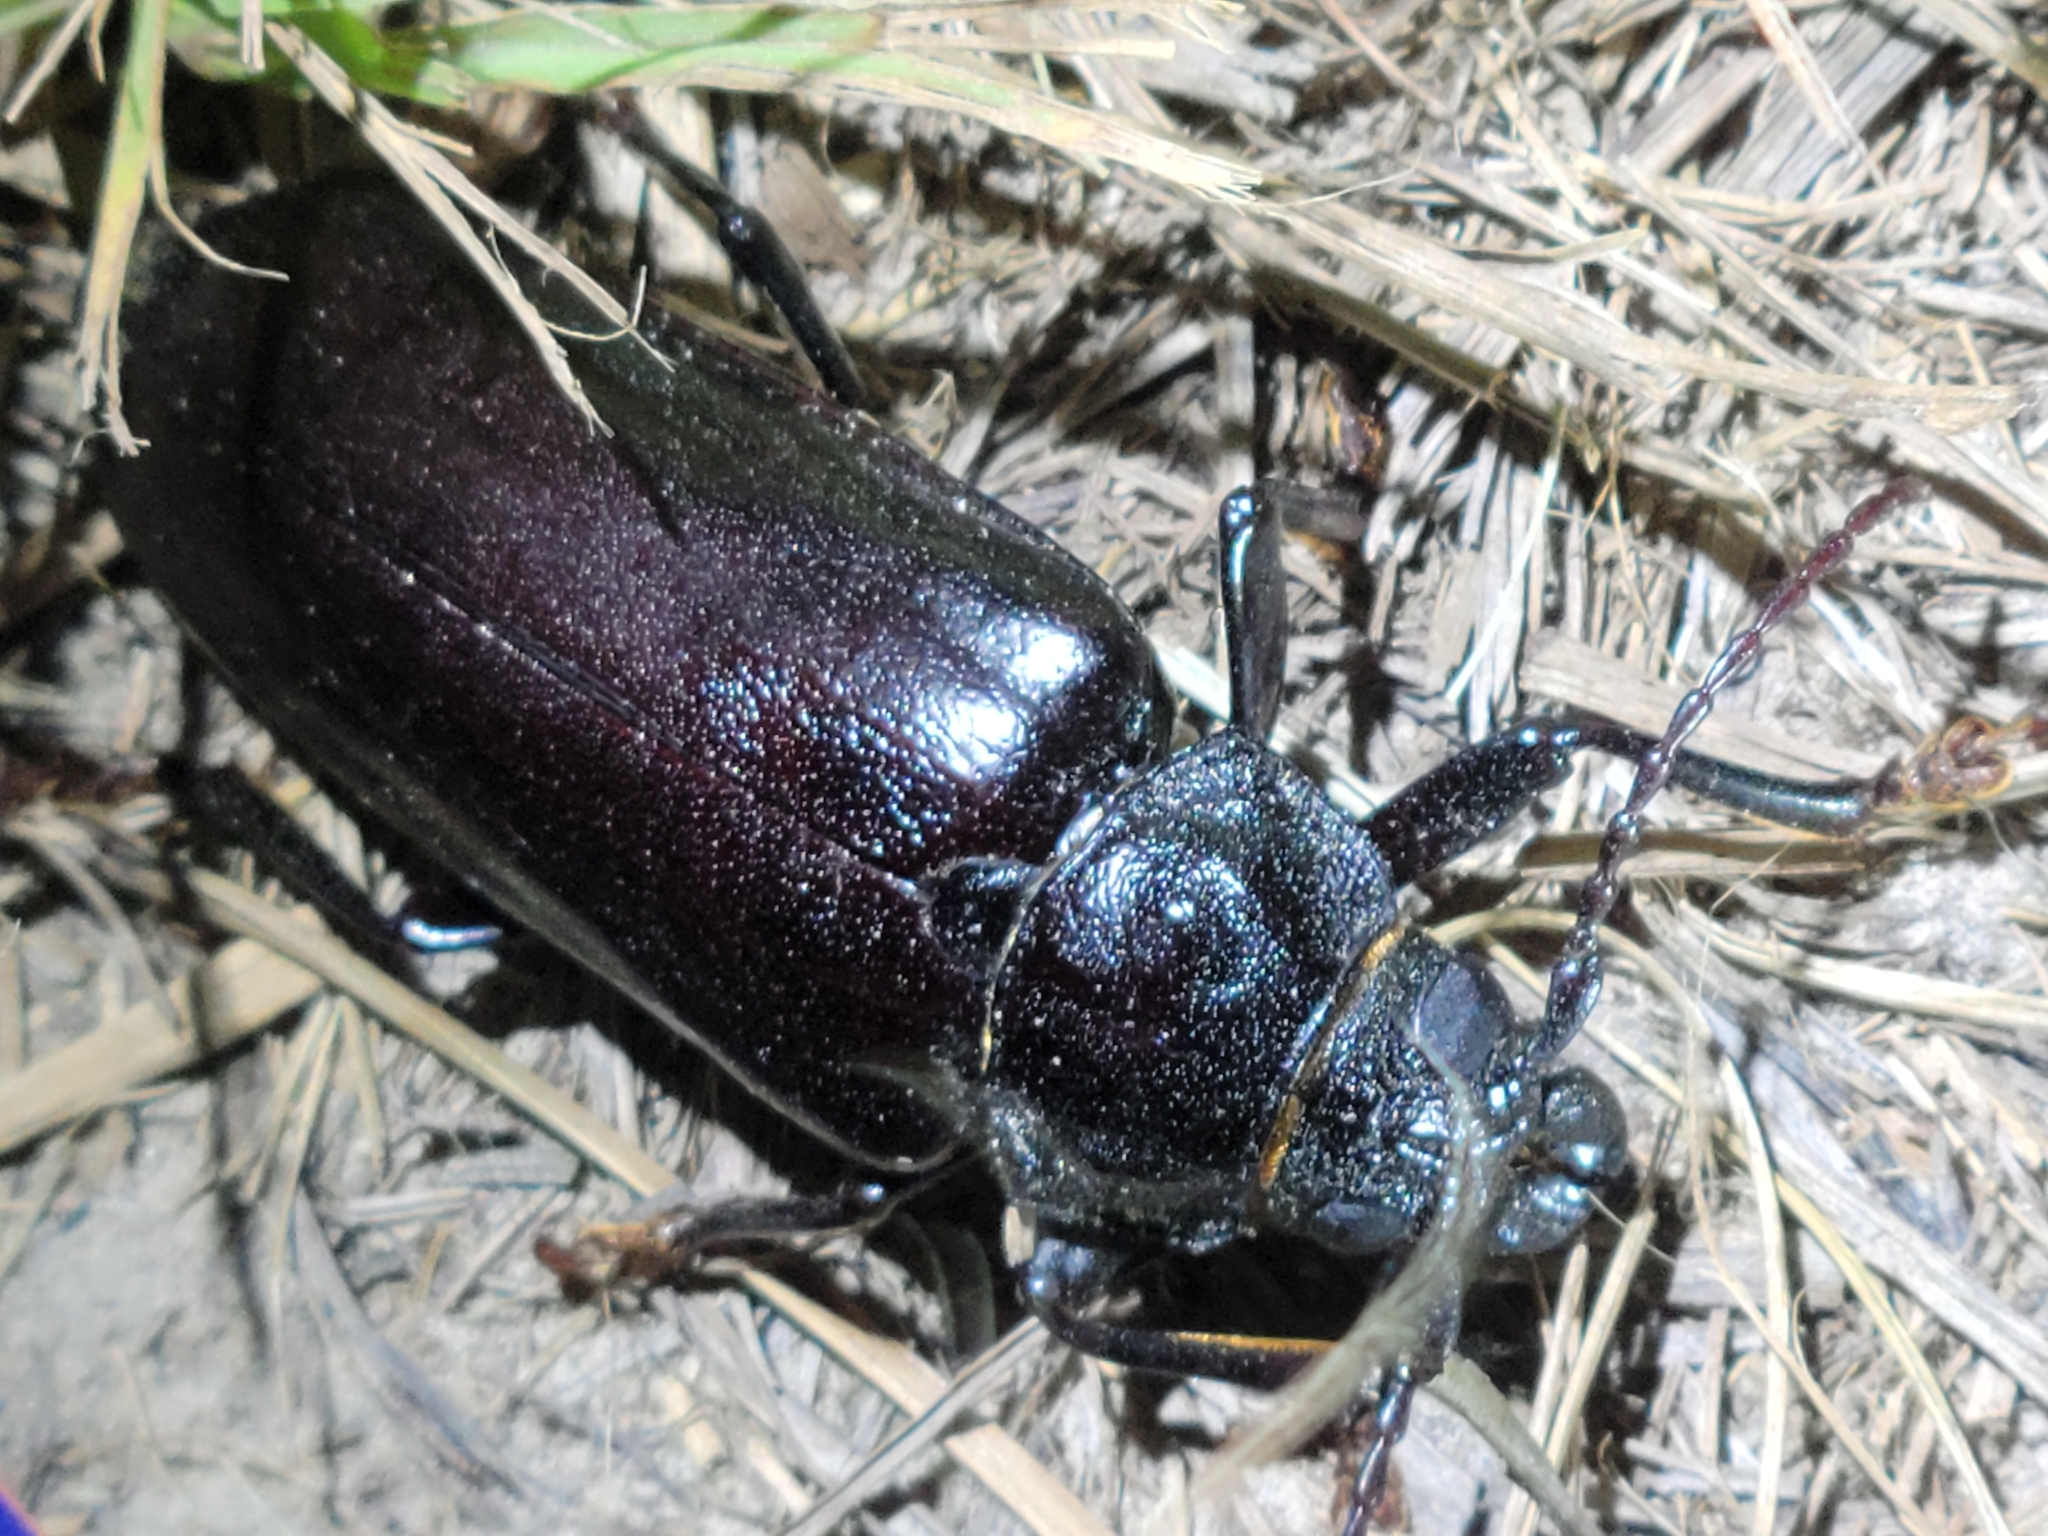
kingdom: Animalia
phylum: Arthropoda
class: Insecta
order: Coleoptera
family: Cerambycidae
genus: Archodontes
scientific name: Archodontes melanopus
